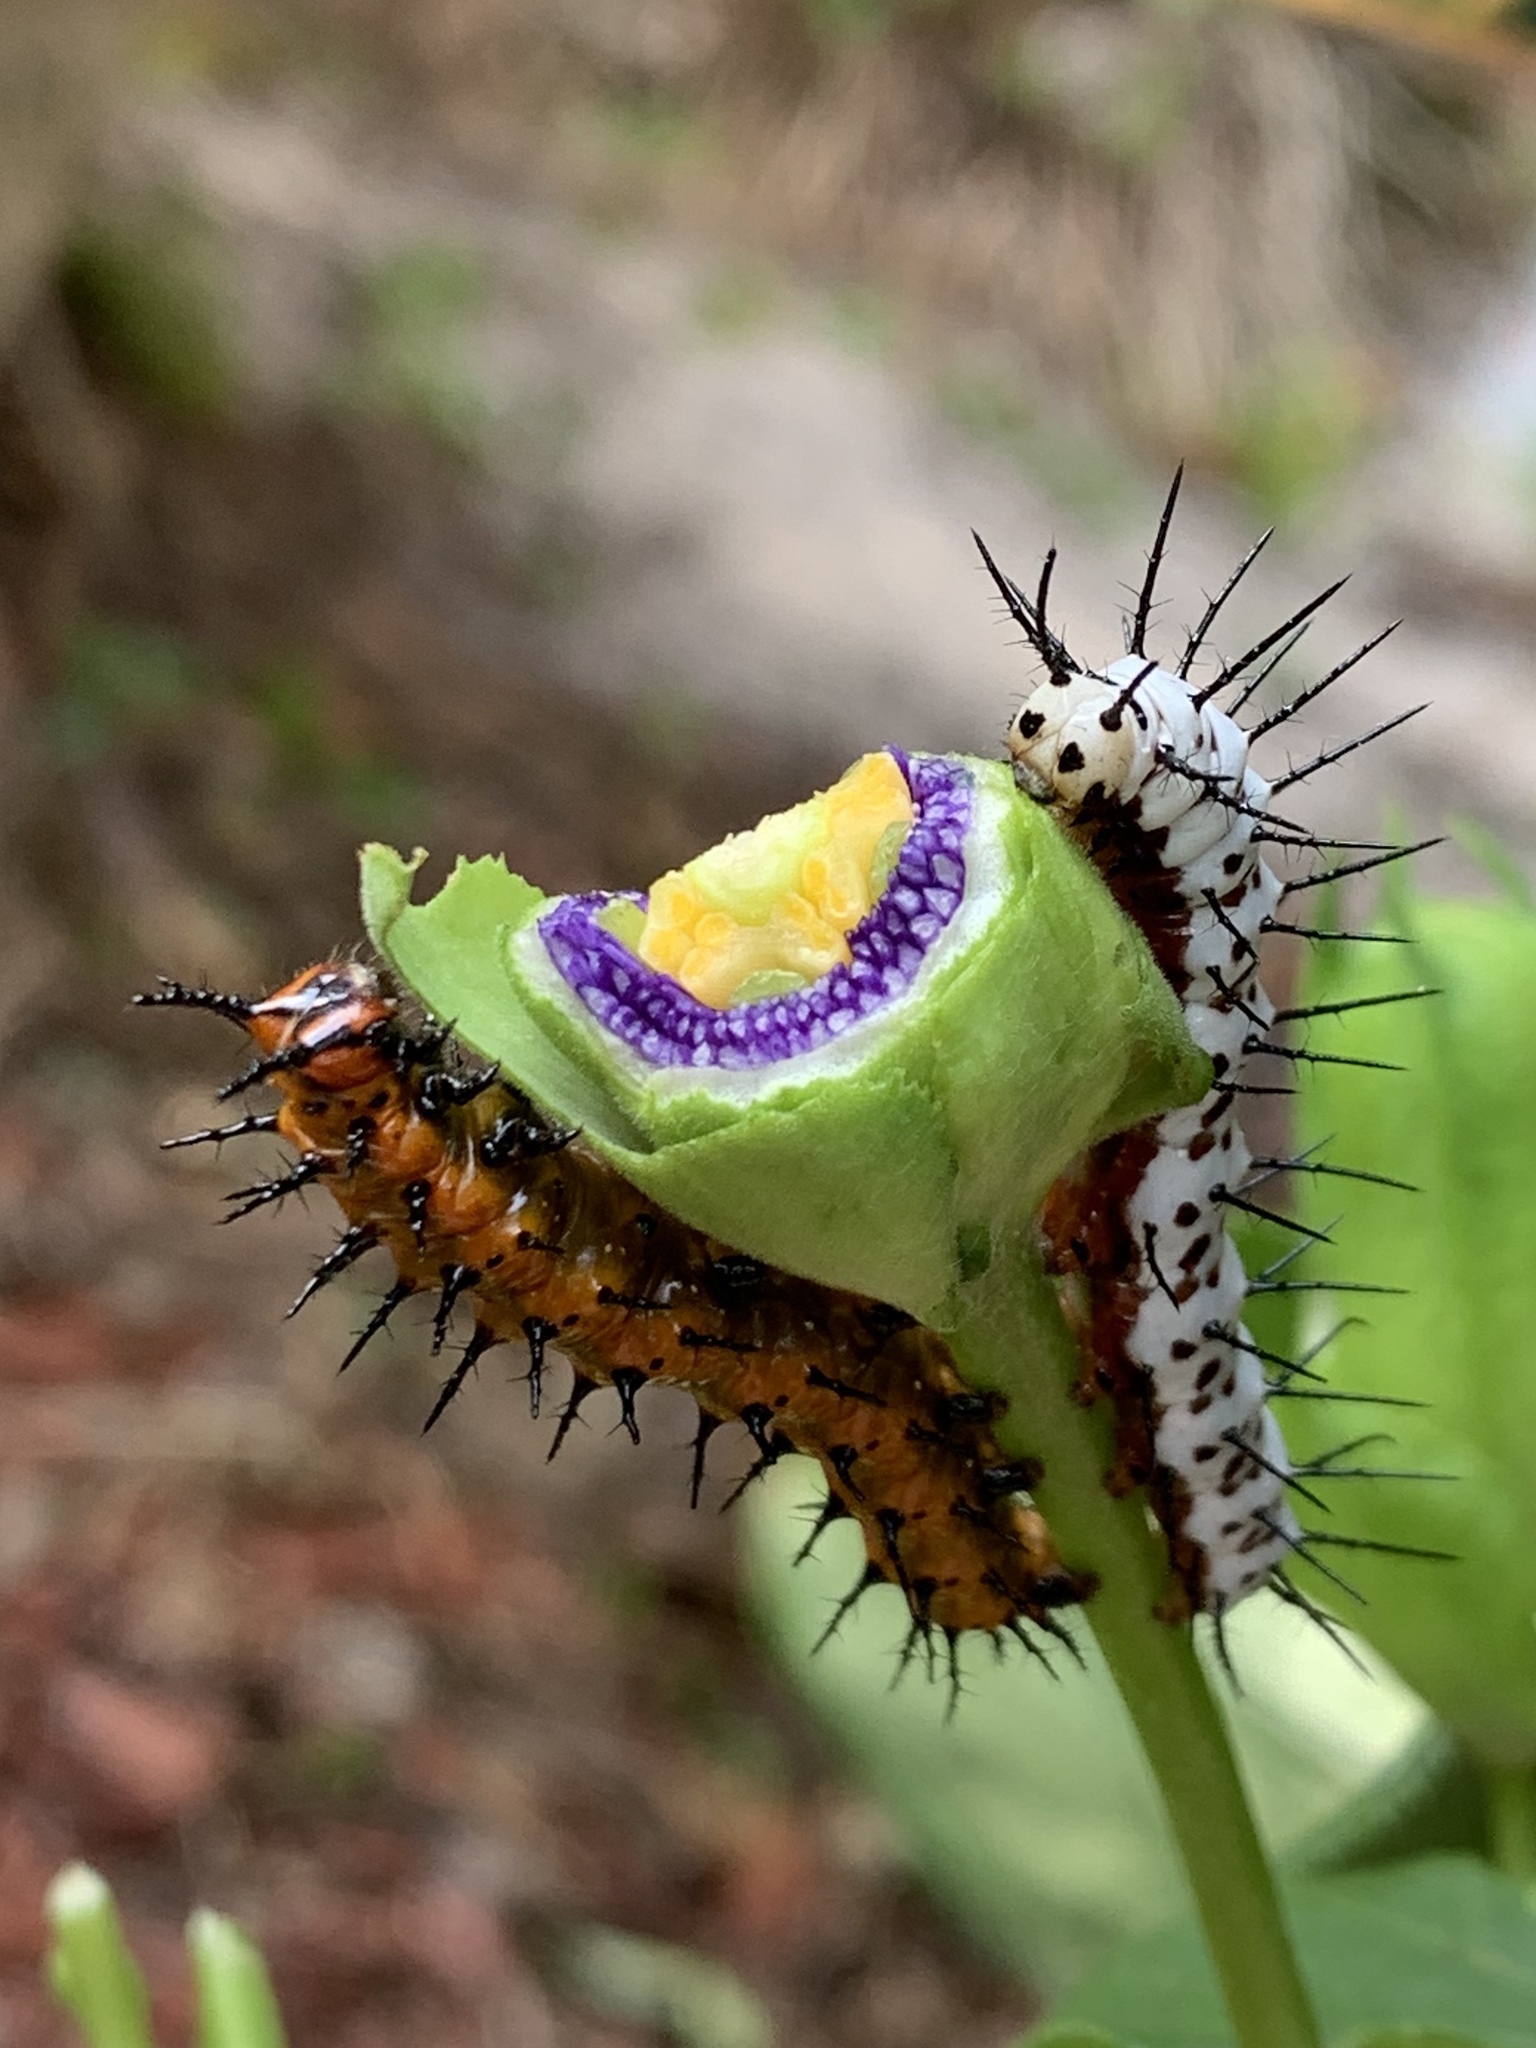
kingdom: Animalia
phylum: Arthropoda
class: Insecta
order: Lepidoptera
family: Nymphalidae
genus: Dione
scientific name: Dione vanillae
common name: Gulf fritillary
